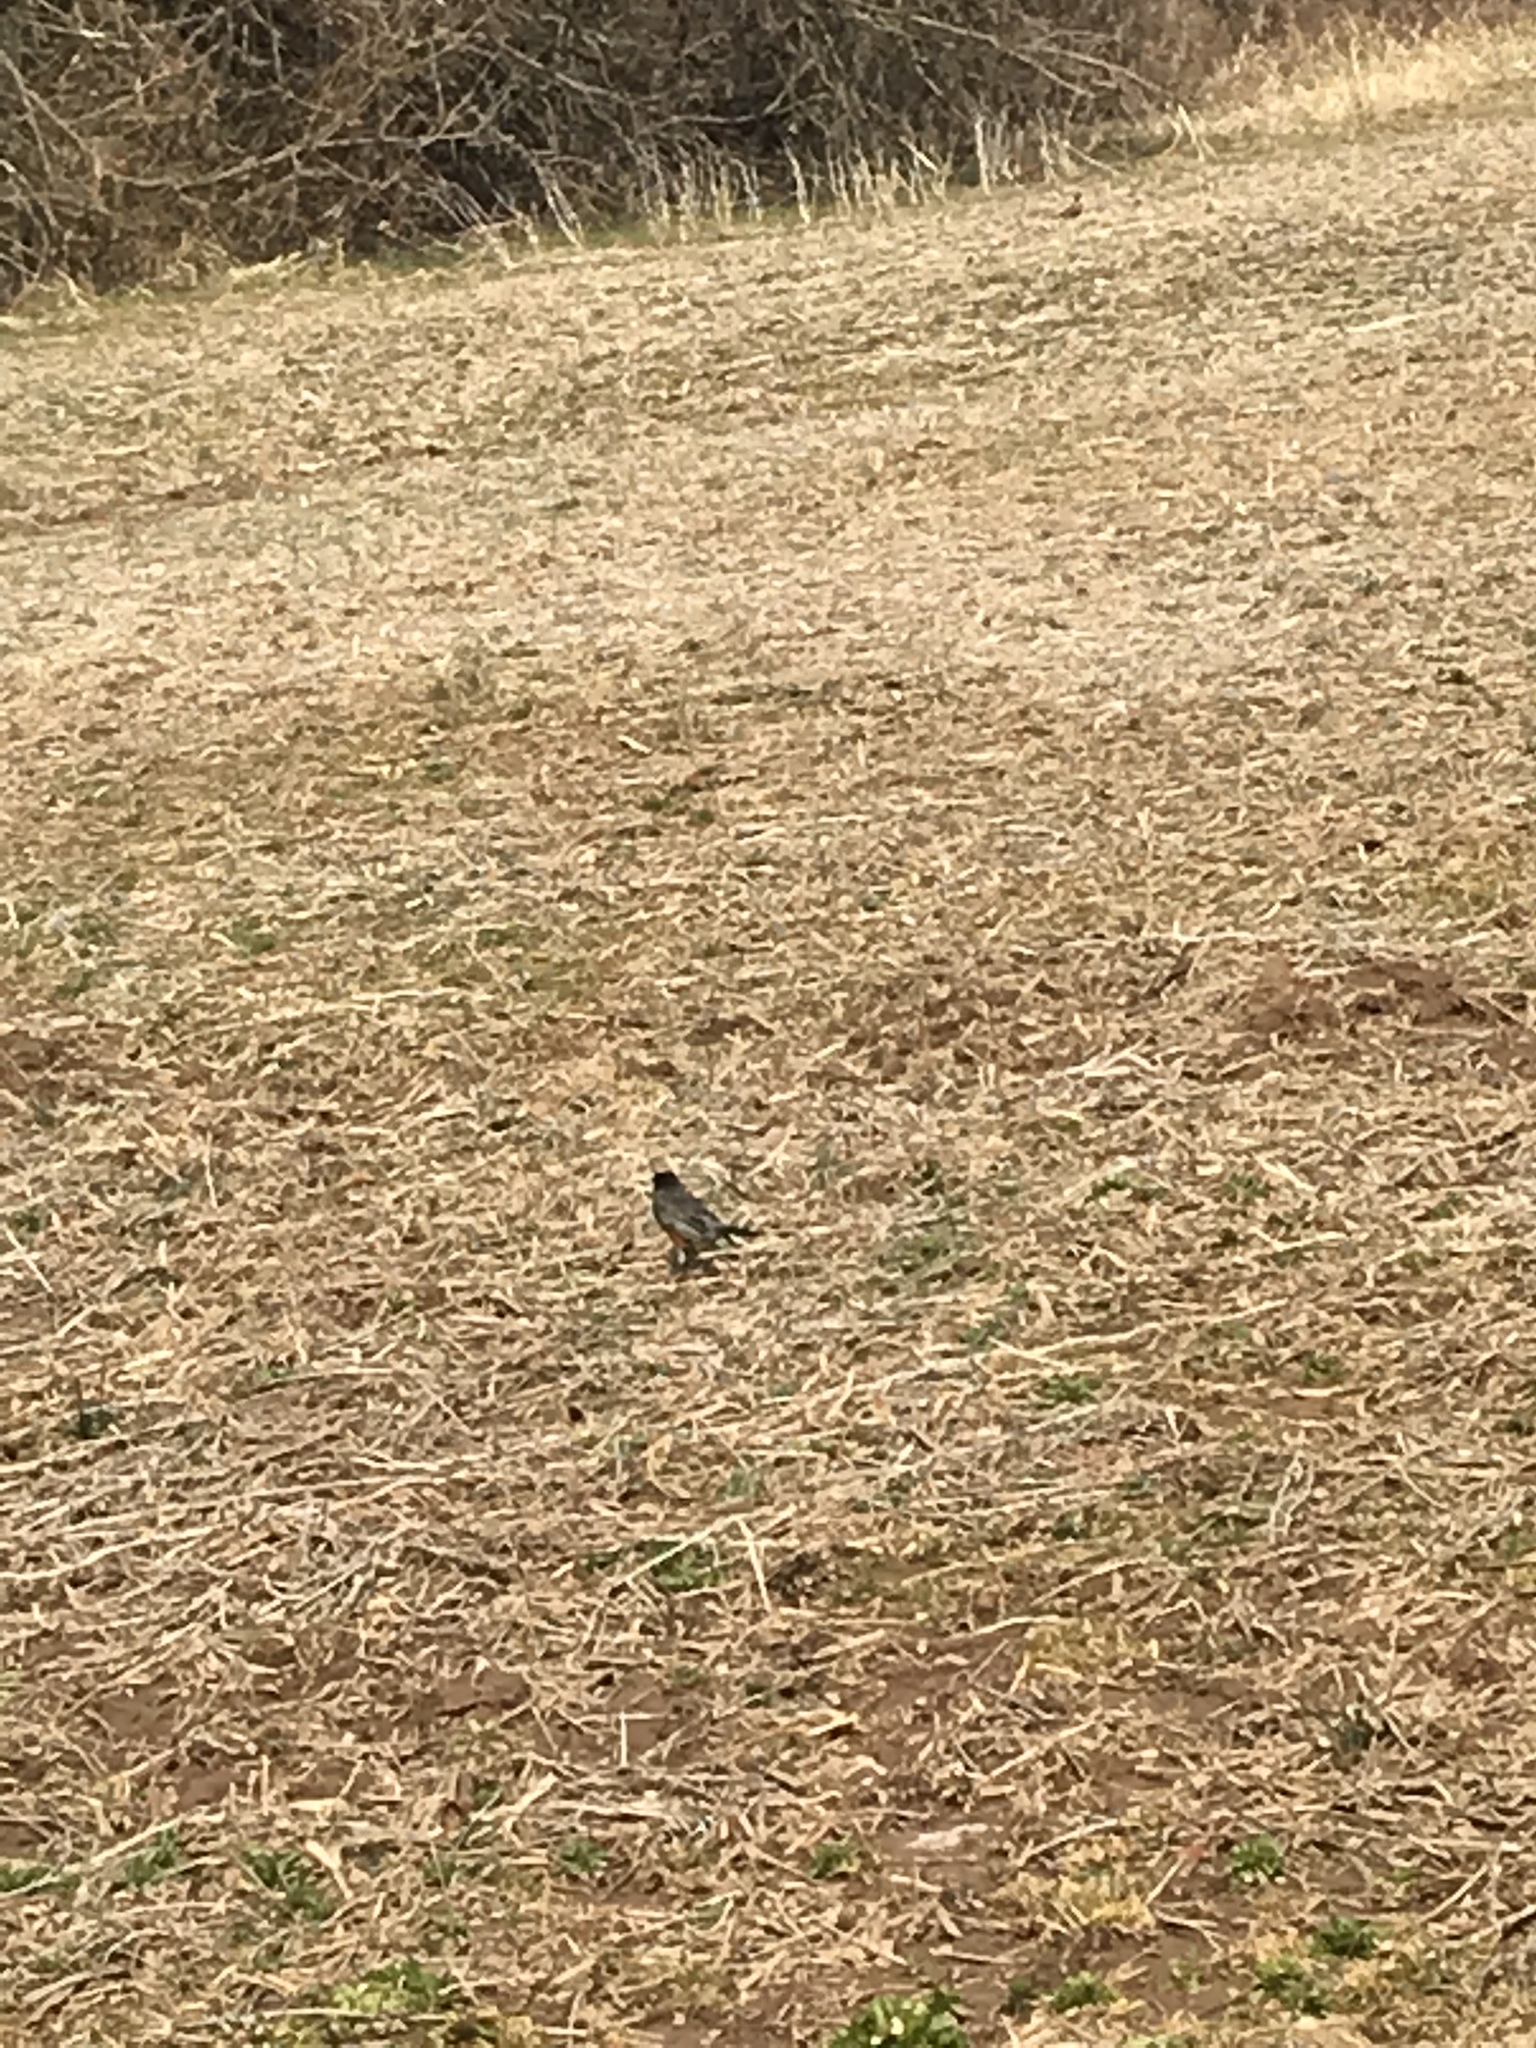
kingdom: Animalia
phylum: Chordata
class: Aves
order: Passeriformes
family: Turdidae
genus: Turdus
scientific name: Turdus migratorius
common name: American robin
